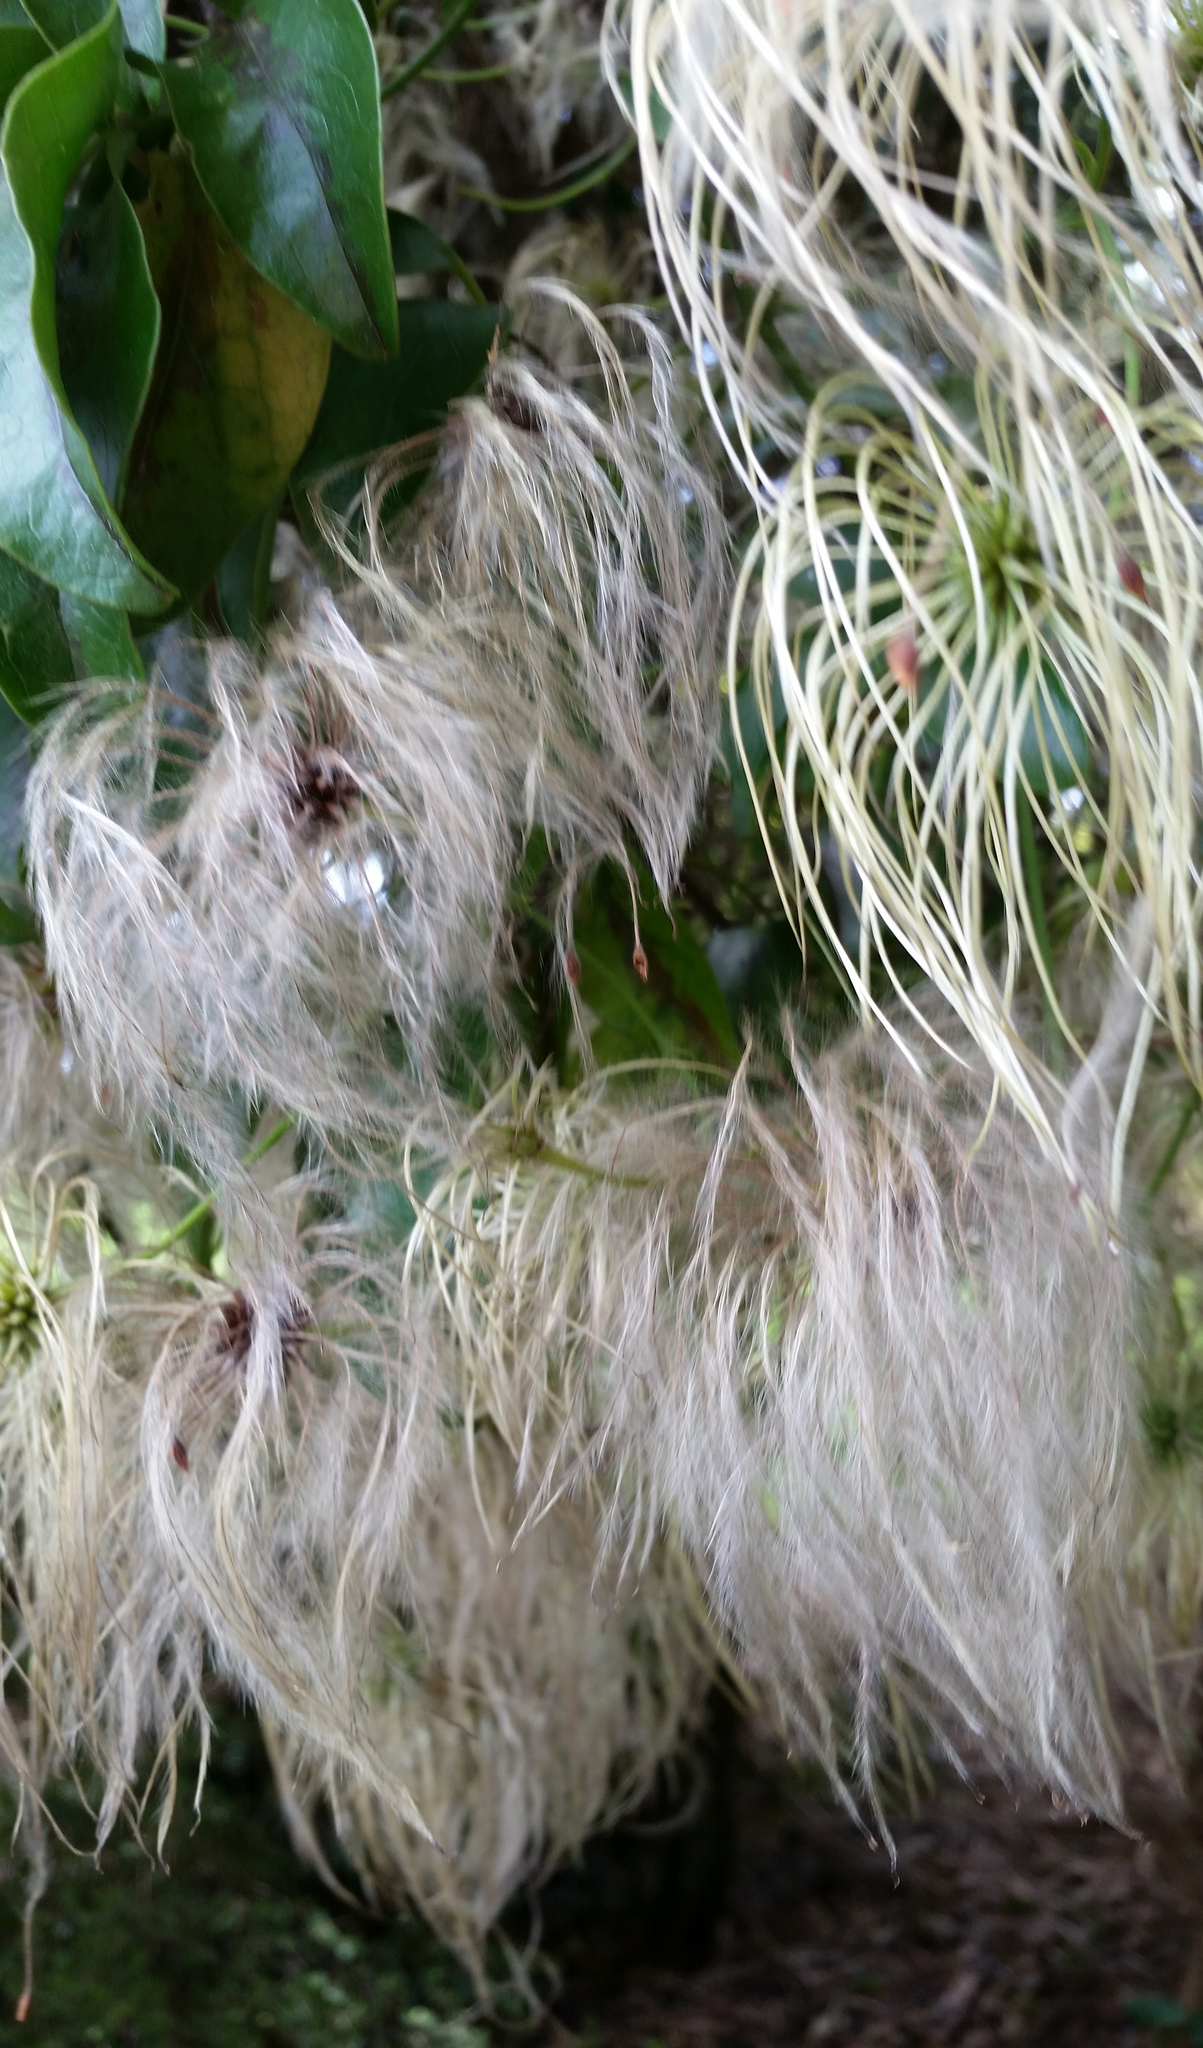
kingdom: Plantae
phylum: Tracheophyta
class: Magnoliopsida
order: Ranunculales
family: Ranunculaceae
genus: Clematis
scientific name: Clematis paniculata
